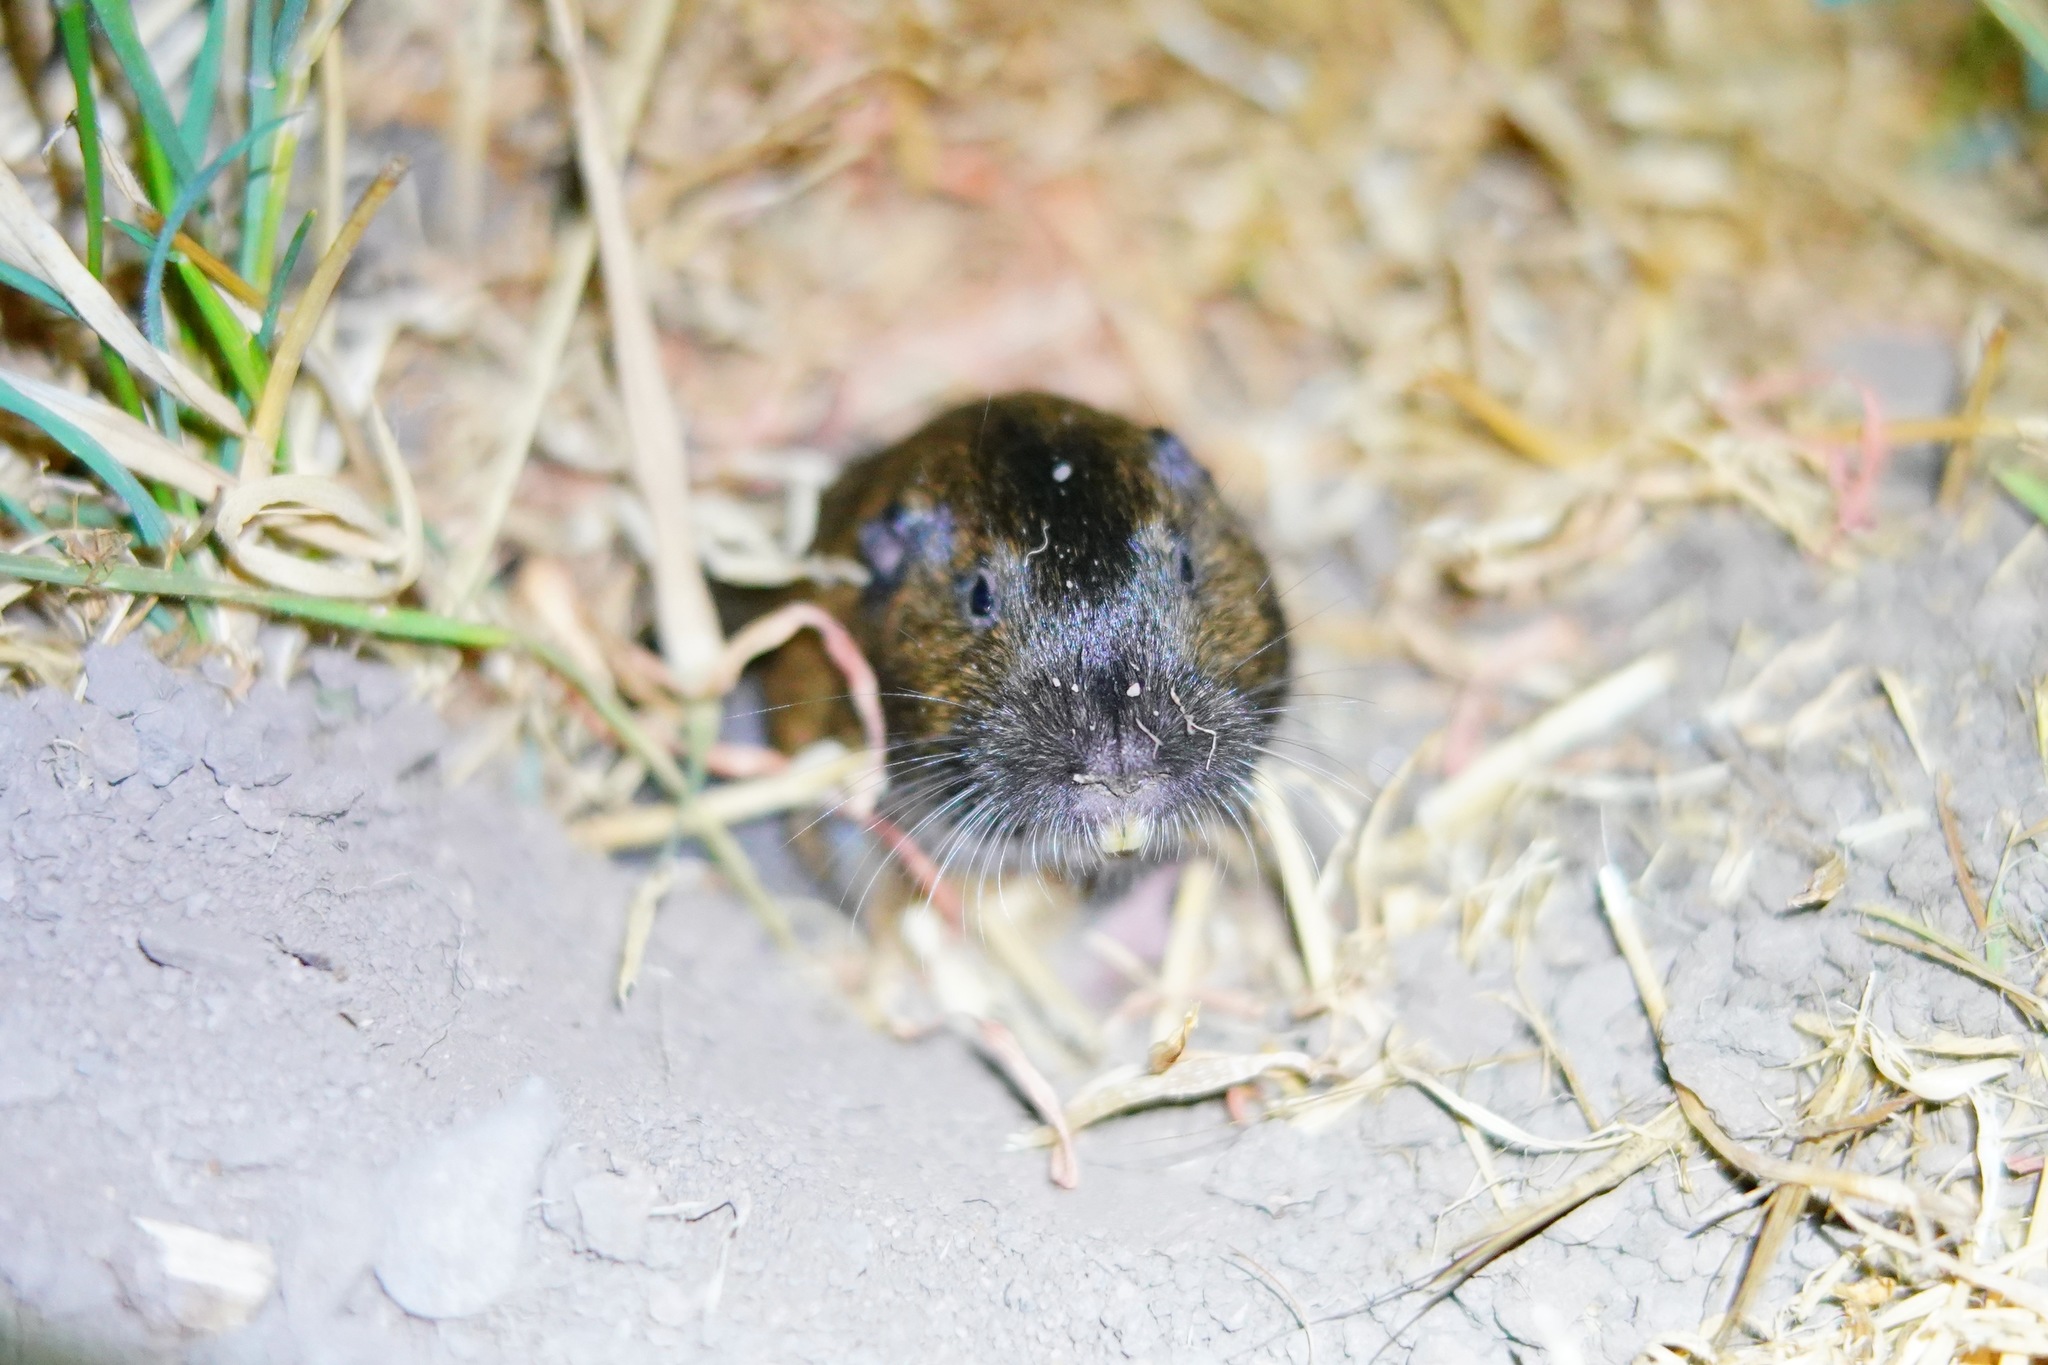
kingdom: Animalia
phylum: Chordata
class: Mammalia
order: Rodentia
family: Geomyidae
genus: Thomomys
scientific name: Thomomys bottae
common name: Botta's pocket gopher
